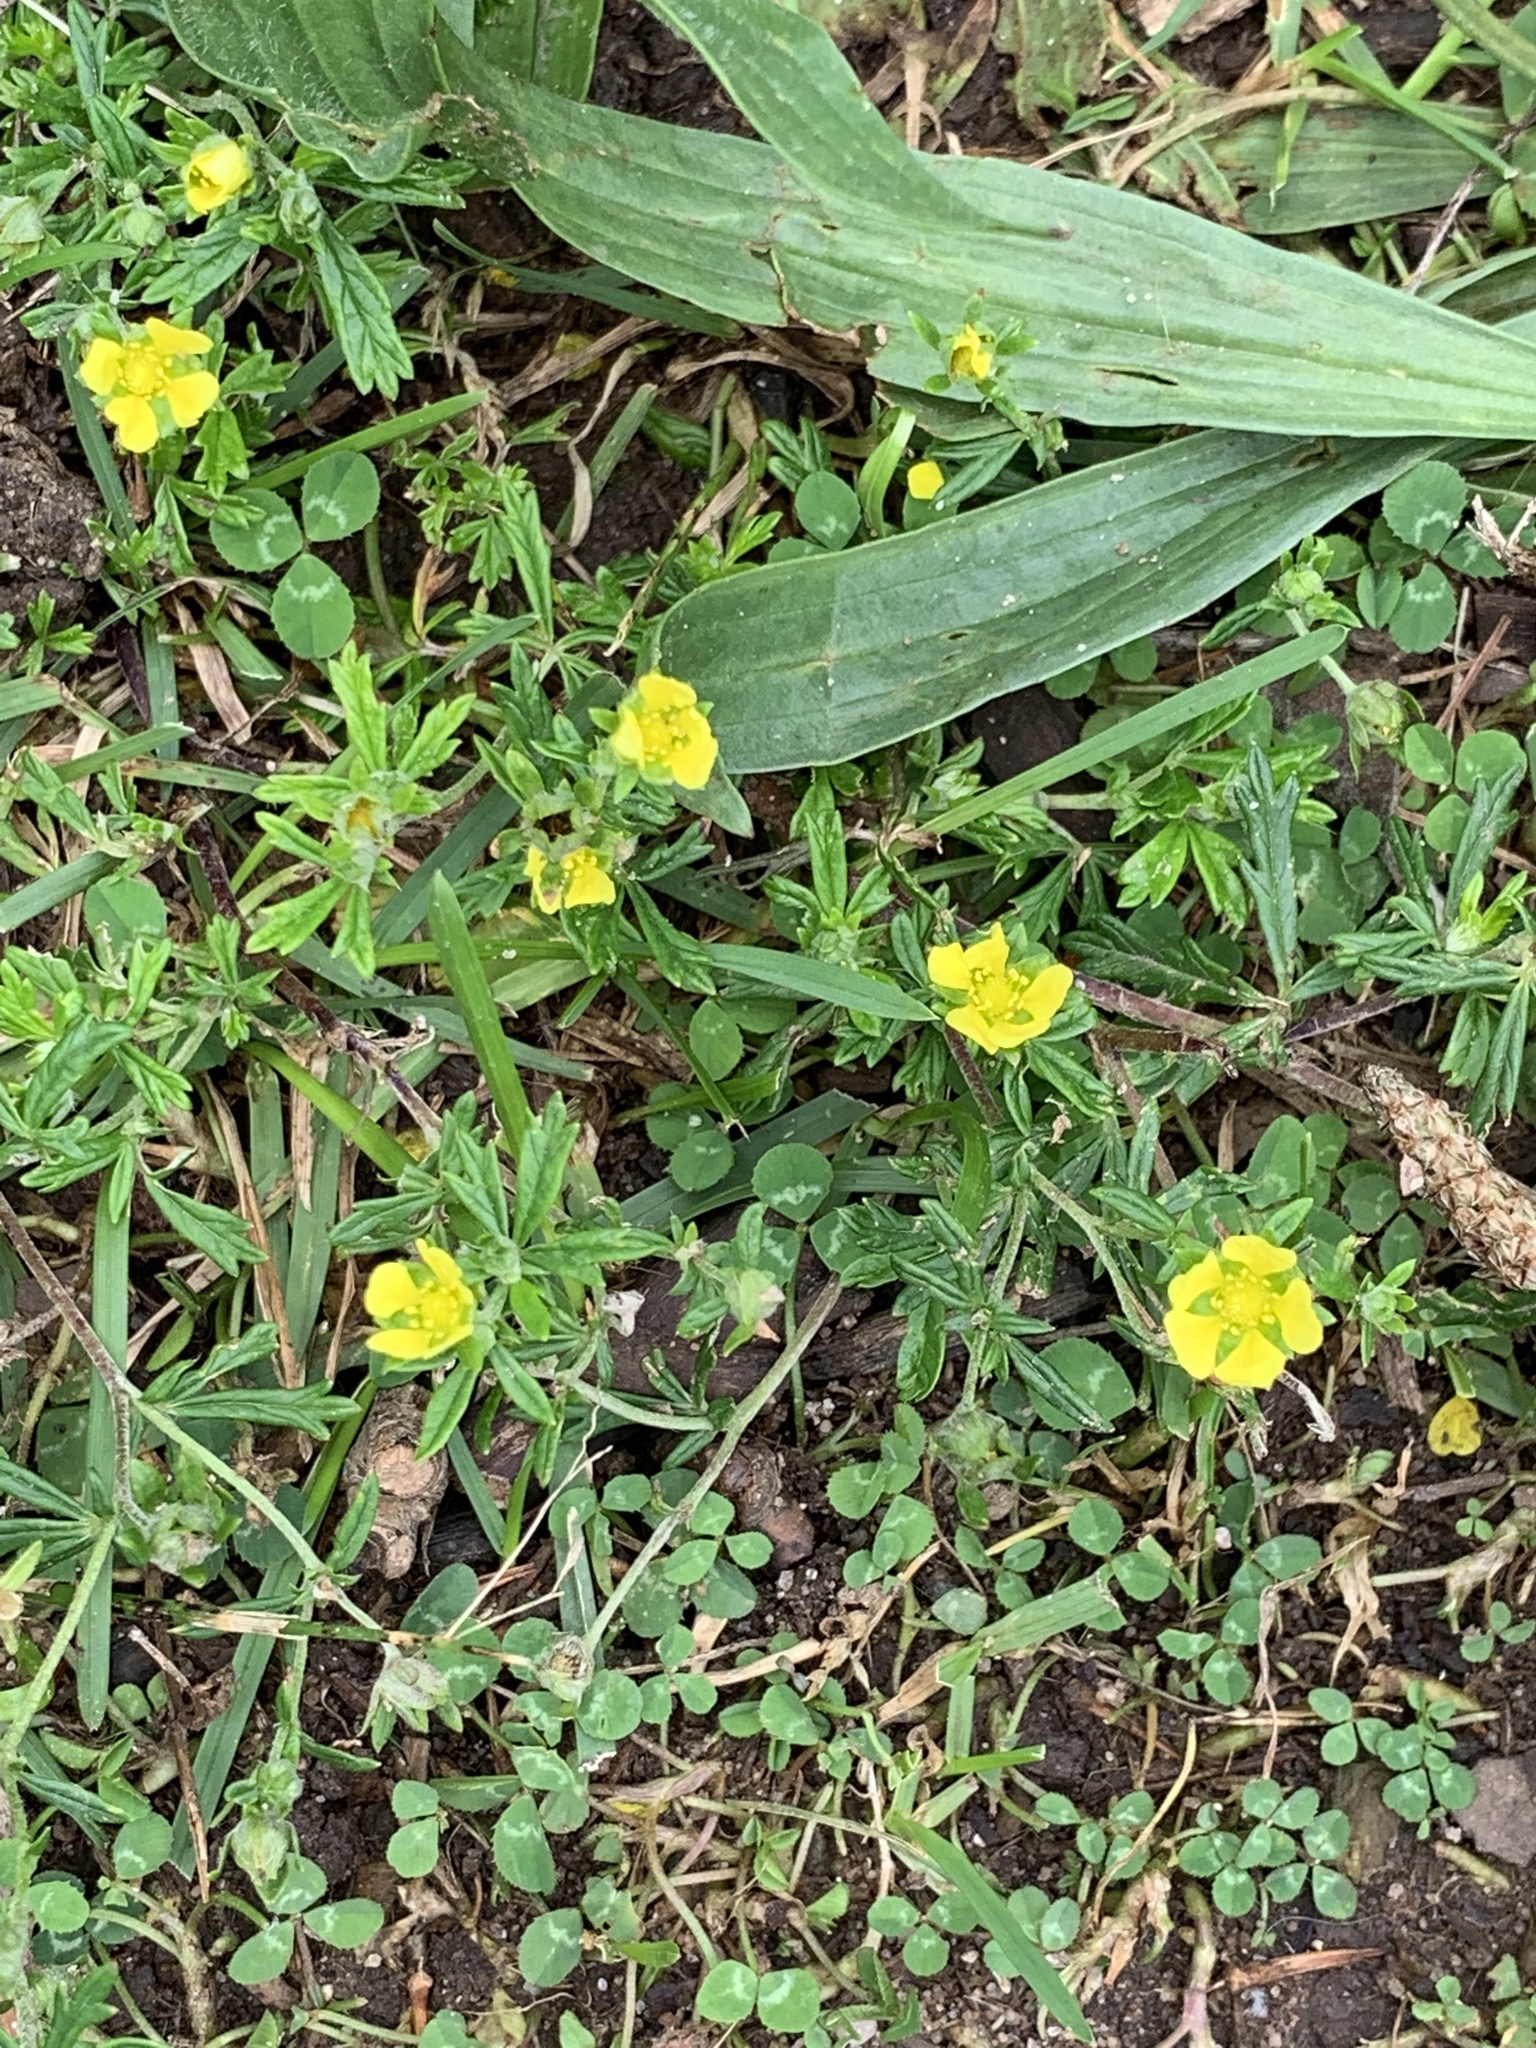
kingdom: Plantae
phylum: Tracheophyta
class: Magnoliopsida
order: Rosales
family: Rosaceae
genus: Potentilla
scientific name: Potentilla argentea
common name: Hoary cinquefoil
